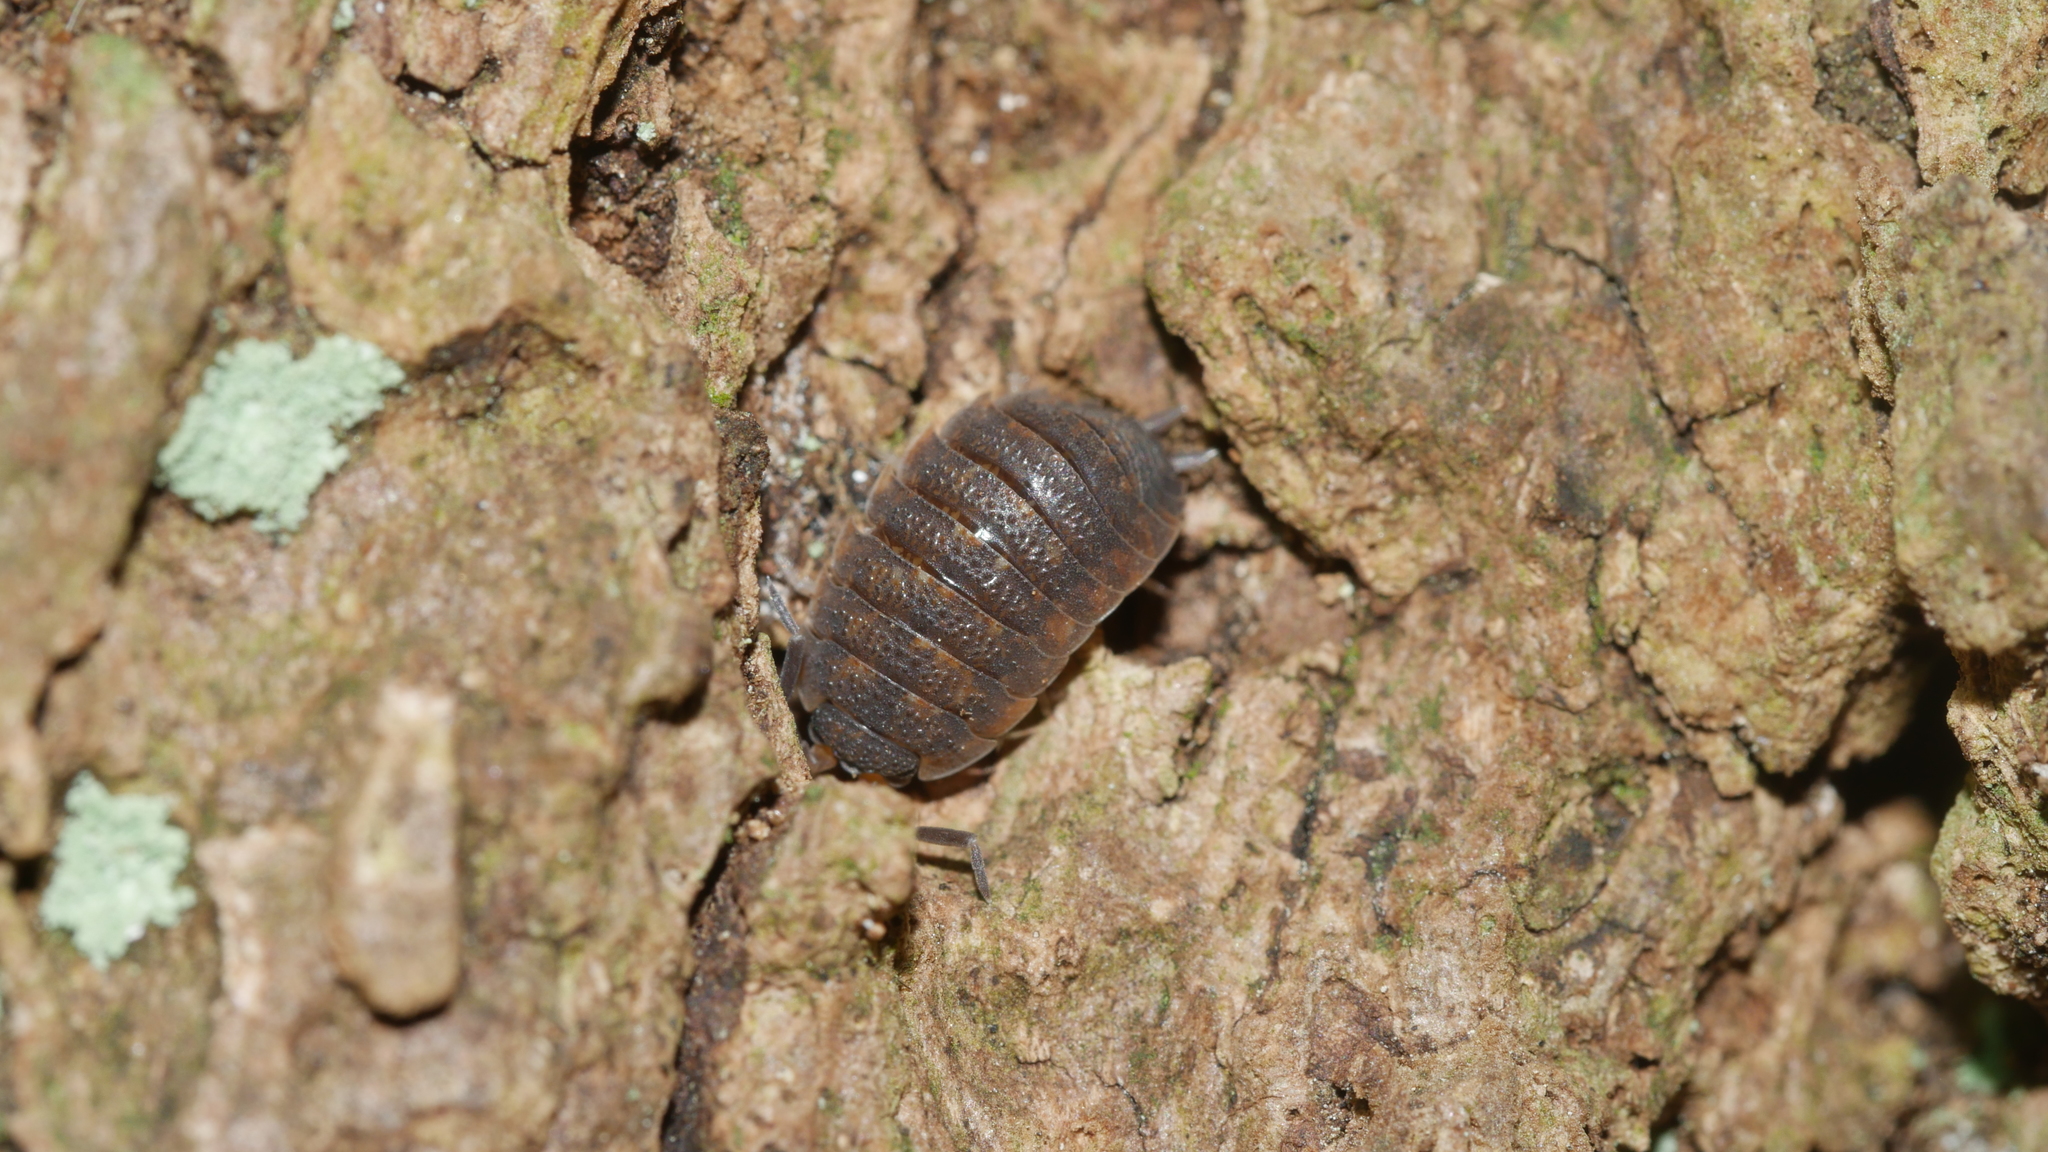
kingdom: Animalia
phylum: Arthropoda
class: Malacostraca
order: Isopoda
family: Porcellionidae
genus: Porcellio
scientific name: Porcellio scaber
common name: Common rough woodlouse
